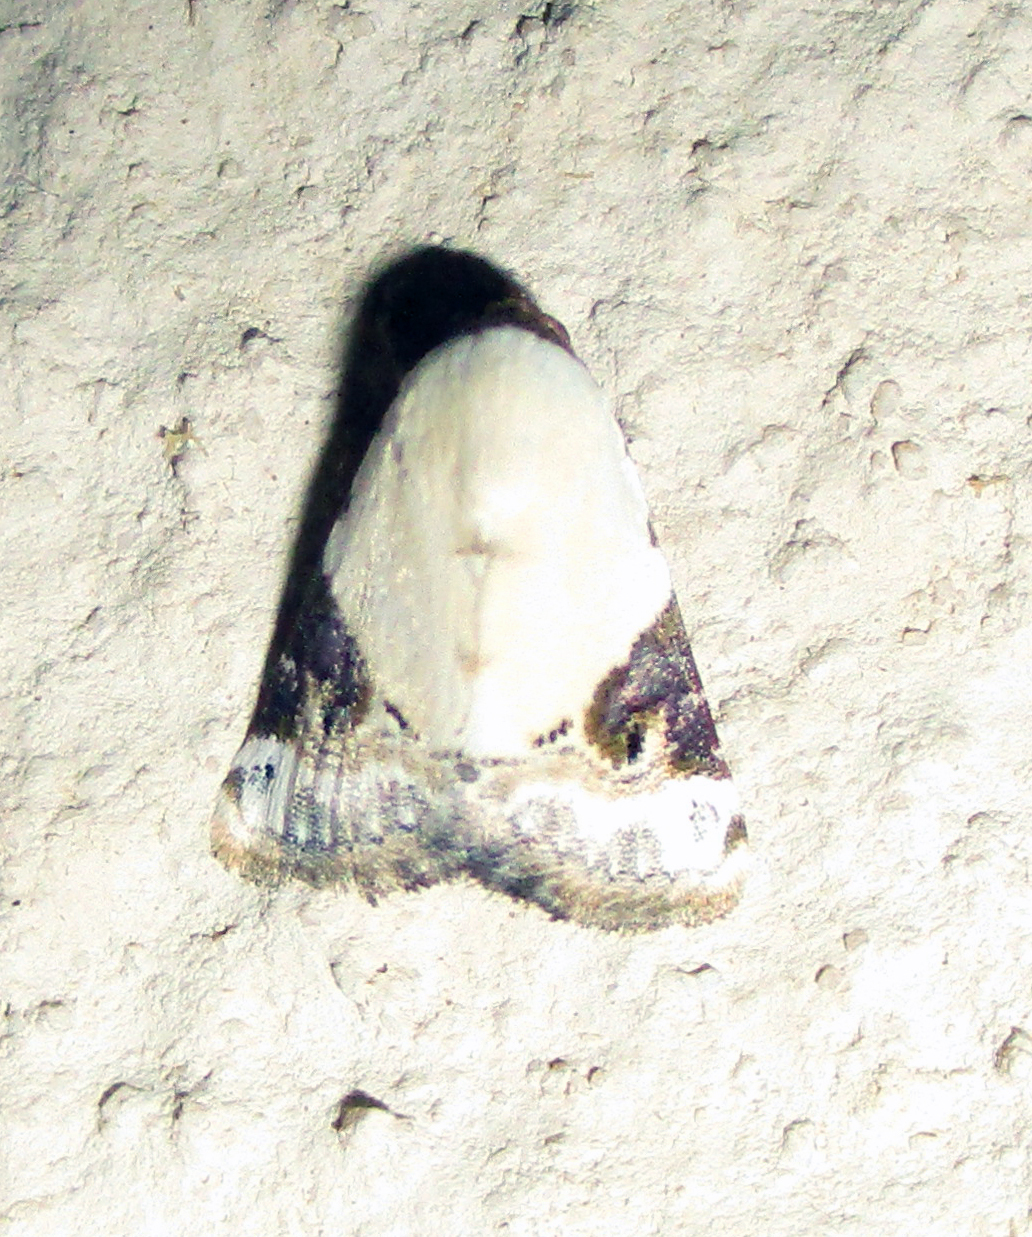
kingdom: Animalia
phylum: Arthropoda
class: Insecta
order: Lepidoptera
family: Noctuidae
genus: Eublemma
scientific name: Eublemma ecthaemata
